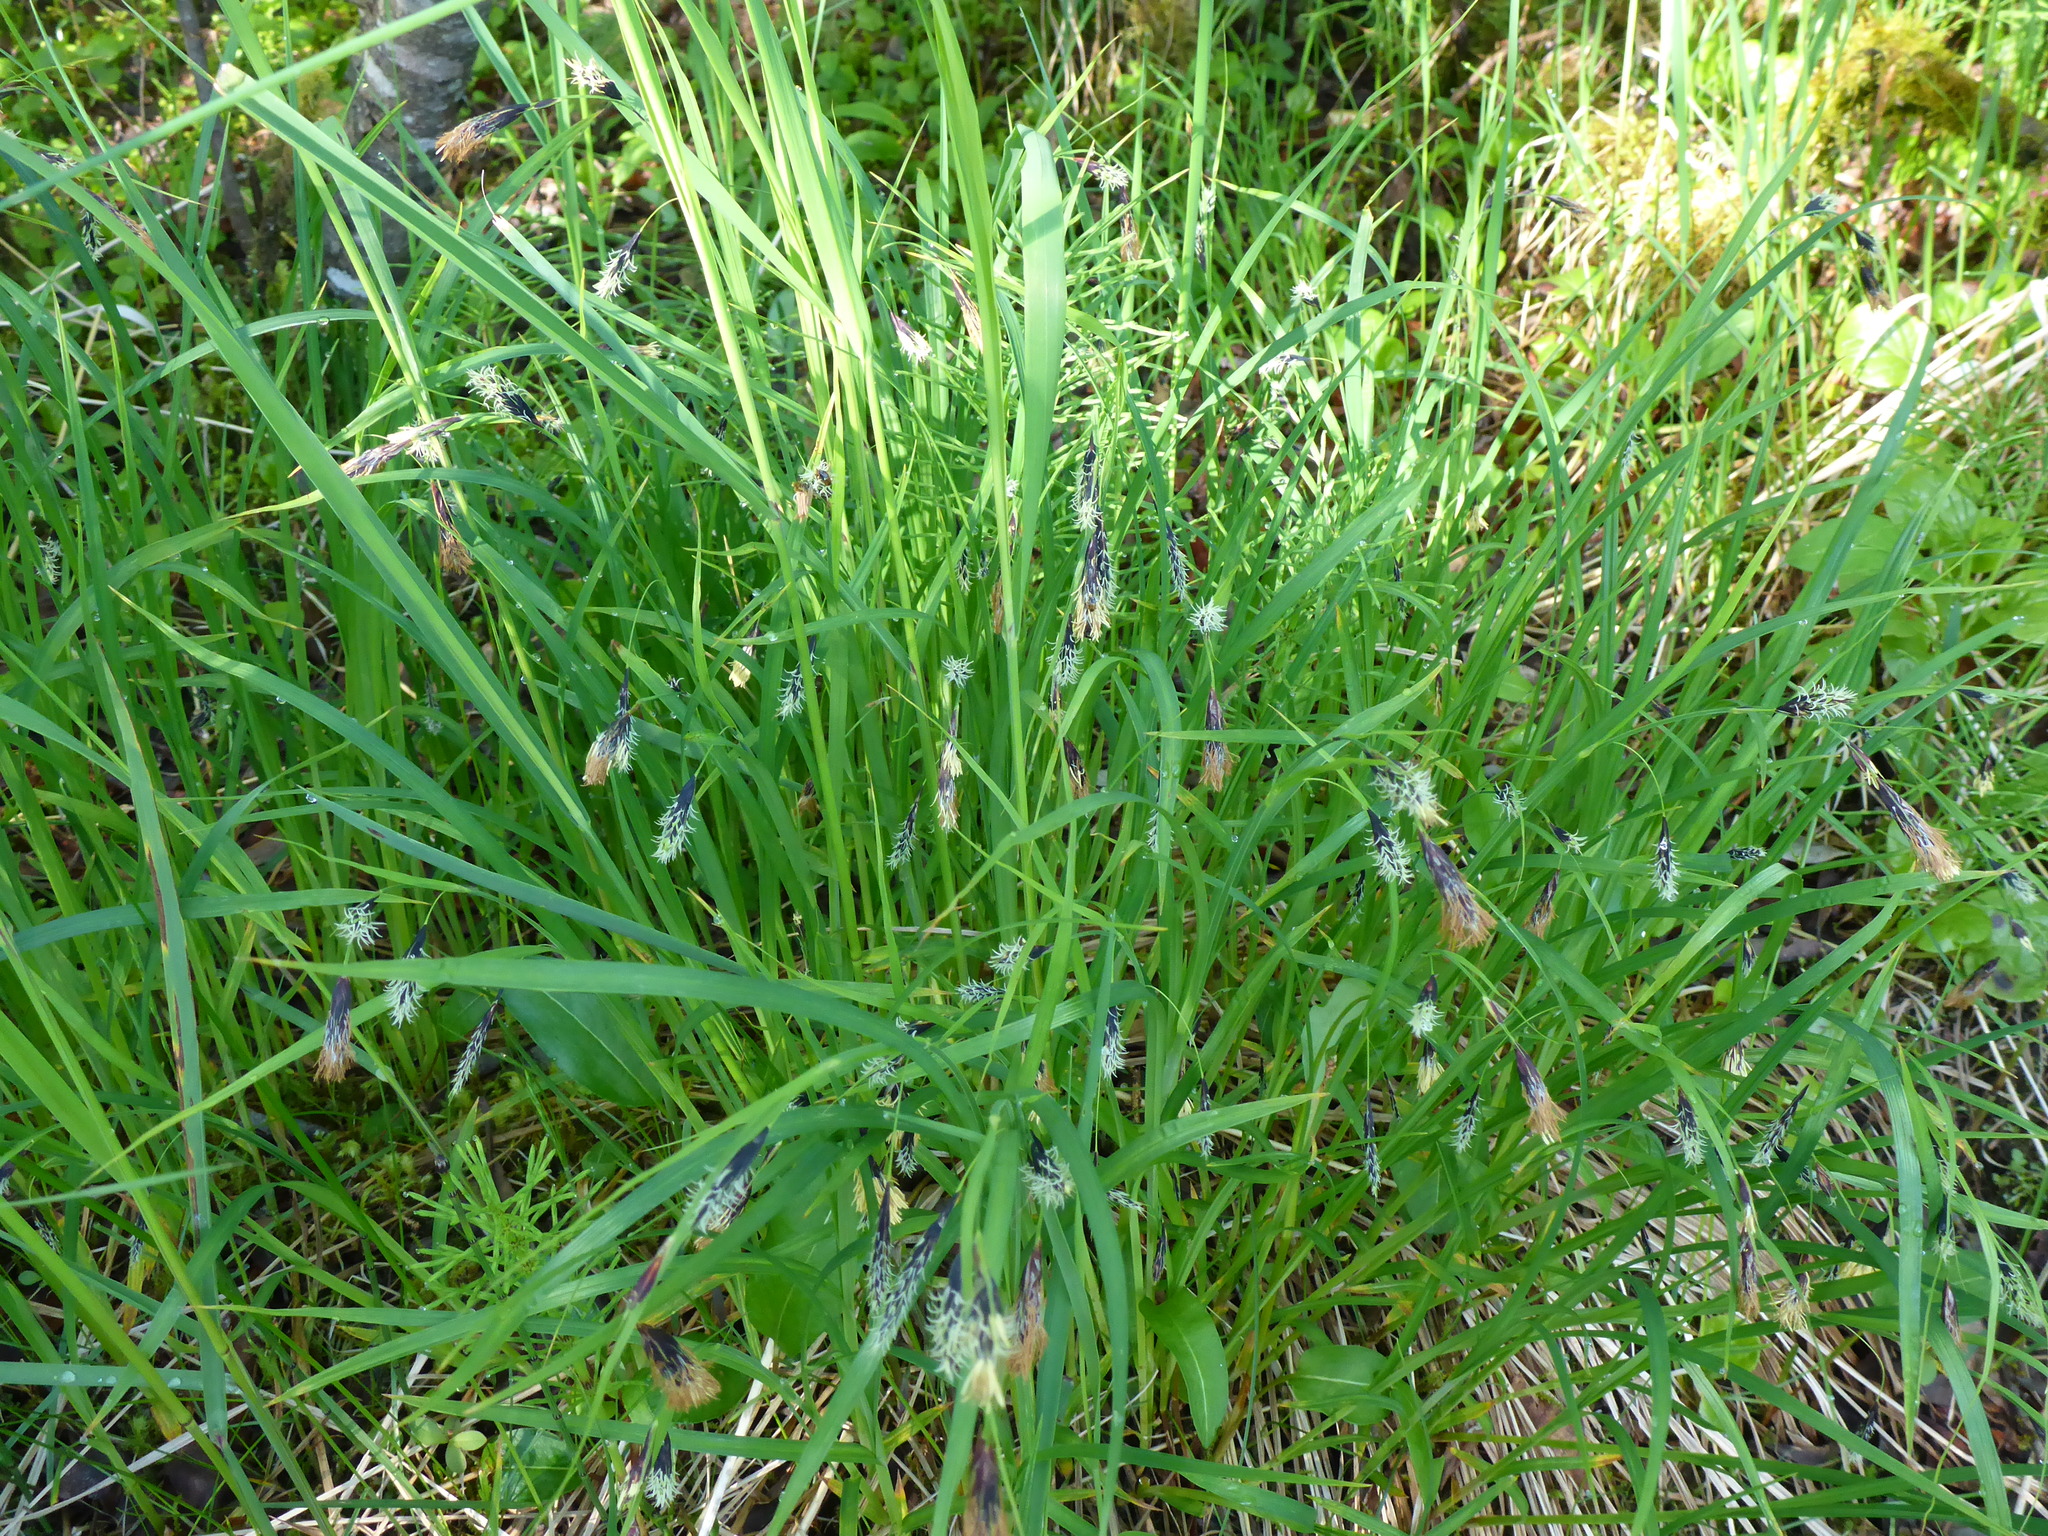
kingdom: Plantae
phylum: Tracheophyta
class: Liliopsida
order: Poales
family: Cyperaceae
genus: Carex
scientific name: Carex macrochaeta
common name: Alaska large awn sedge
